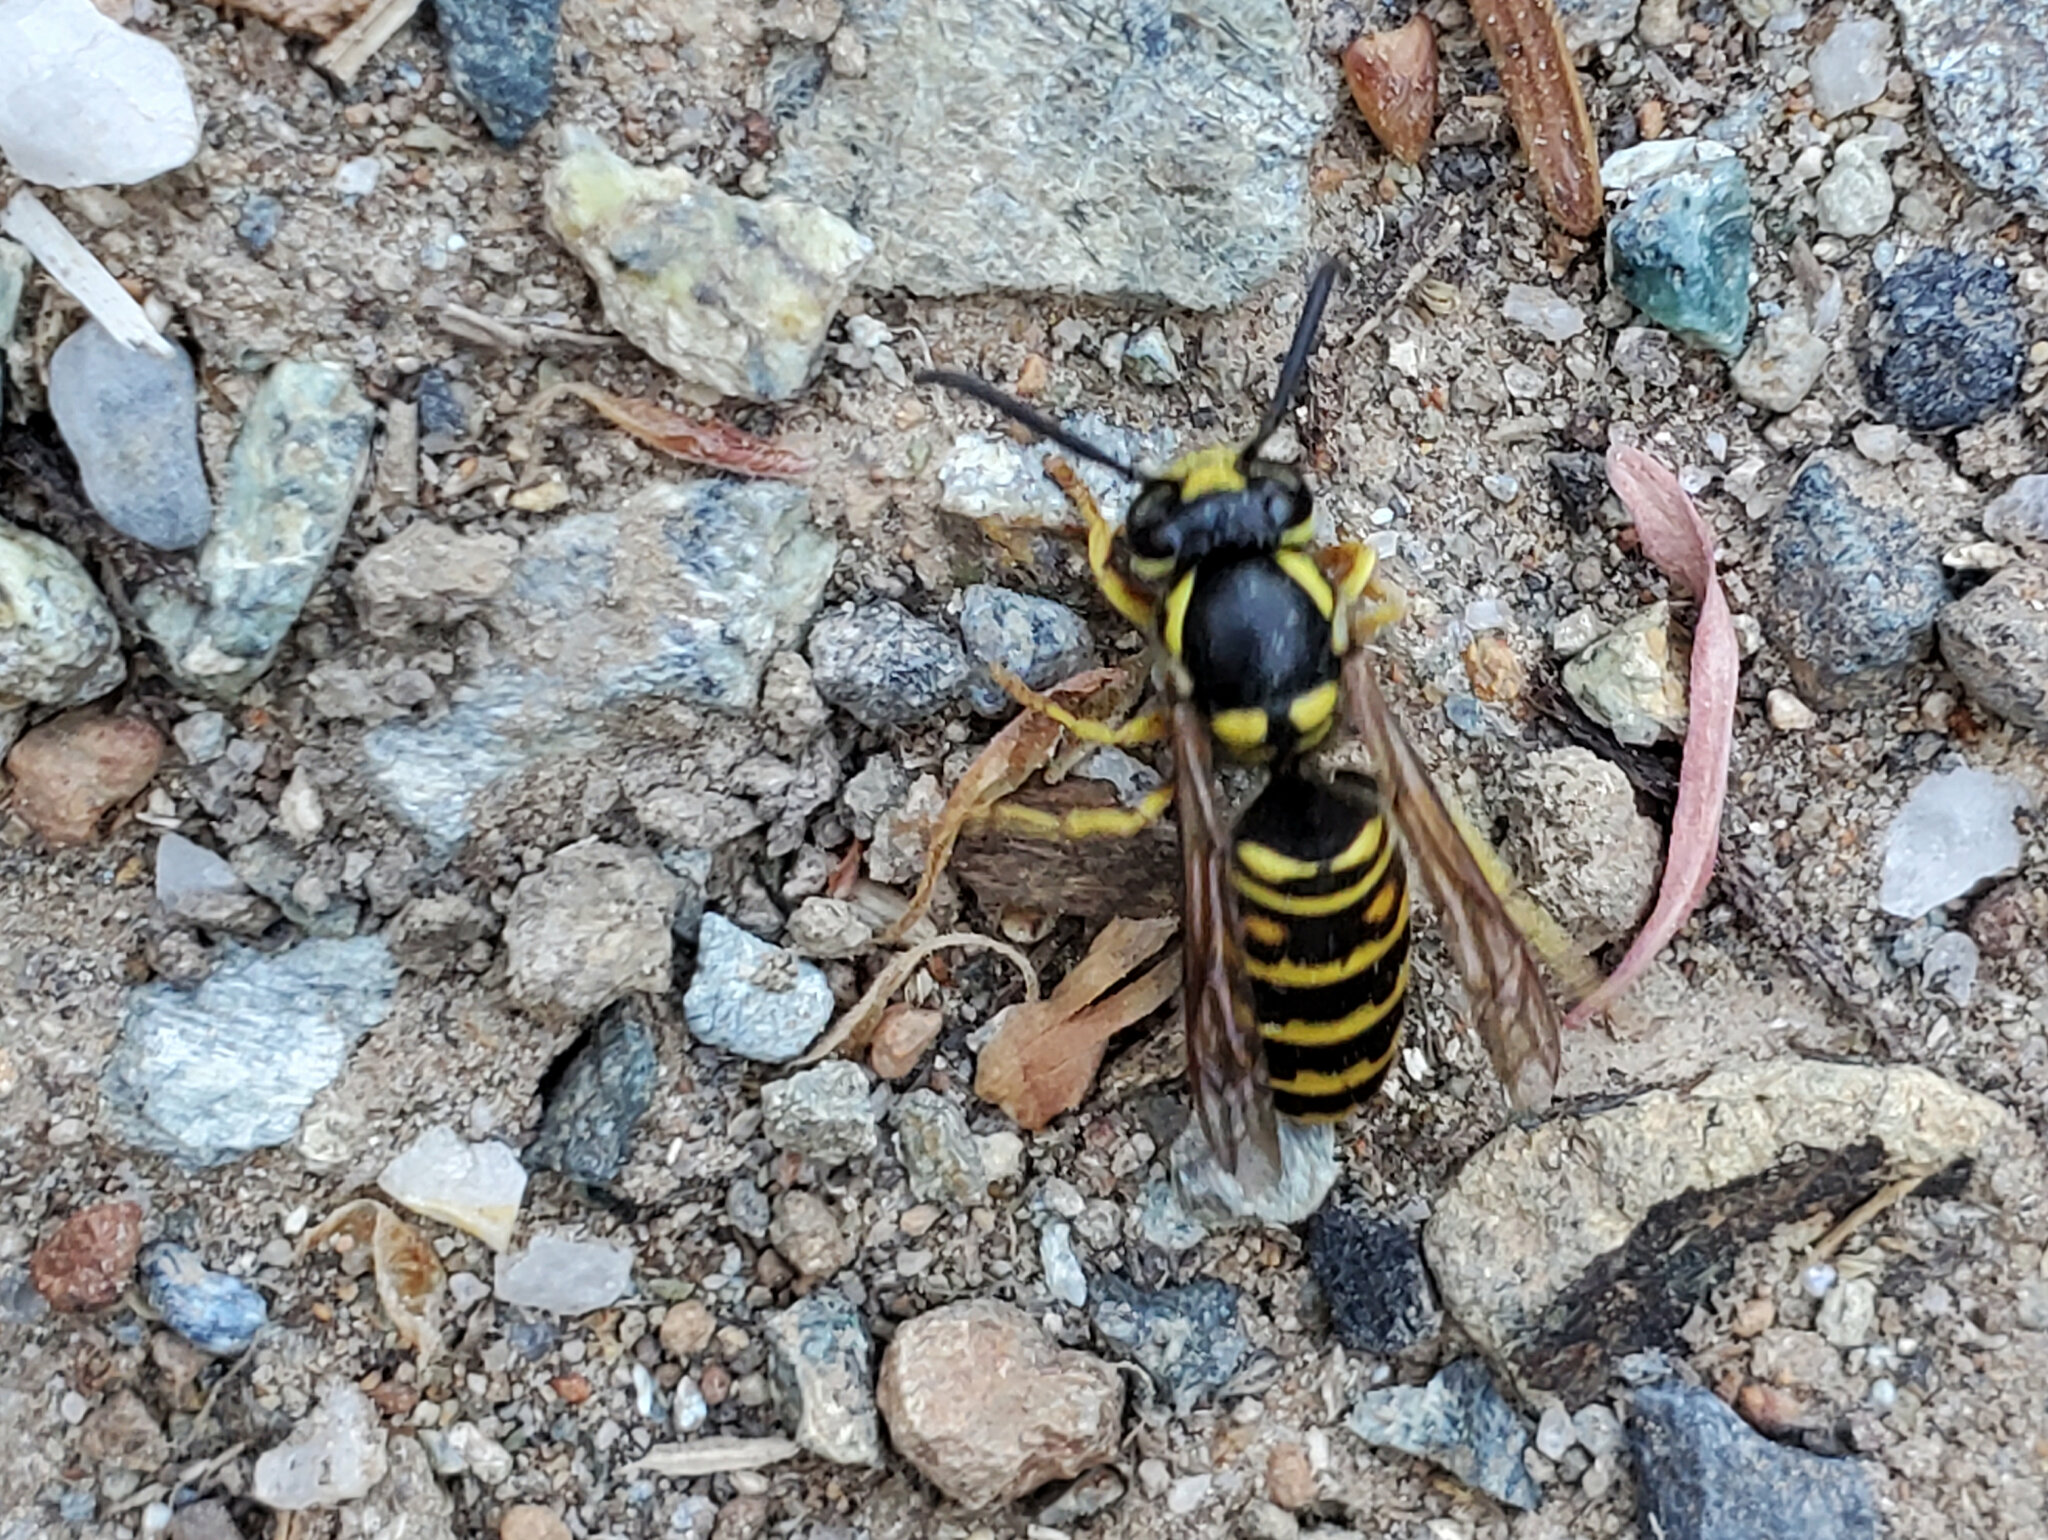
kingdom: Animalia
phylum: Arthropoda
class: Insecta
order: Hymenoptera
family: Vespidae
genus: Vespula
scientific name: Vespula acadica
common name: Forest yellowjacket
